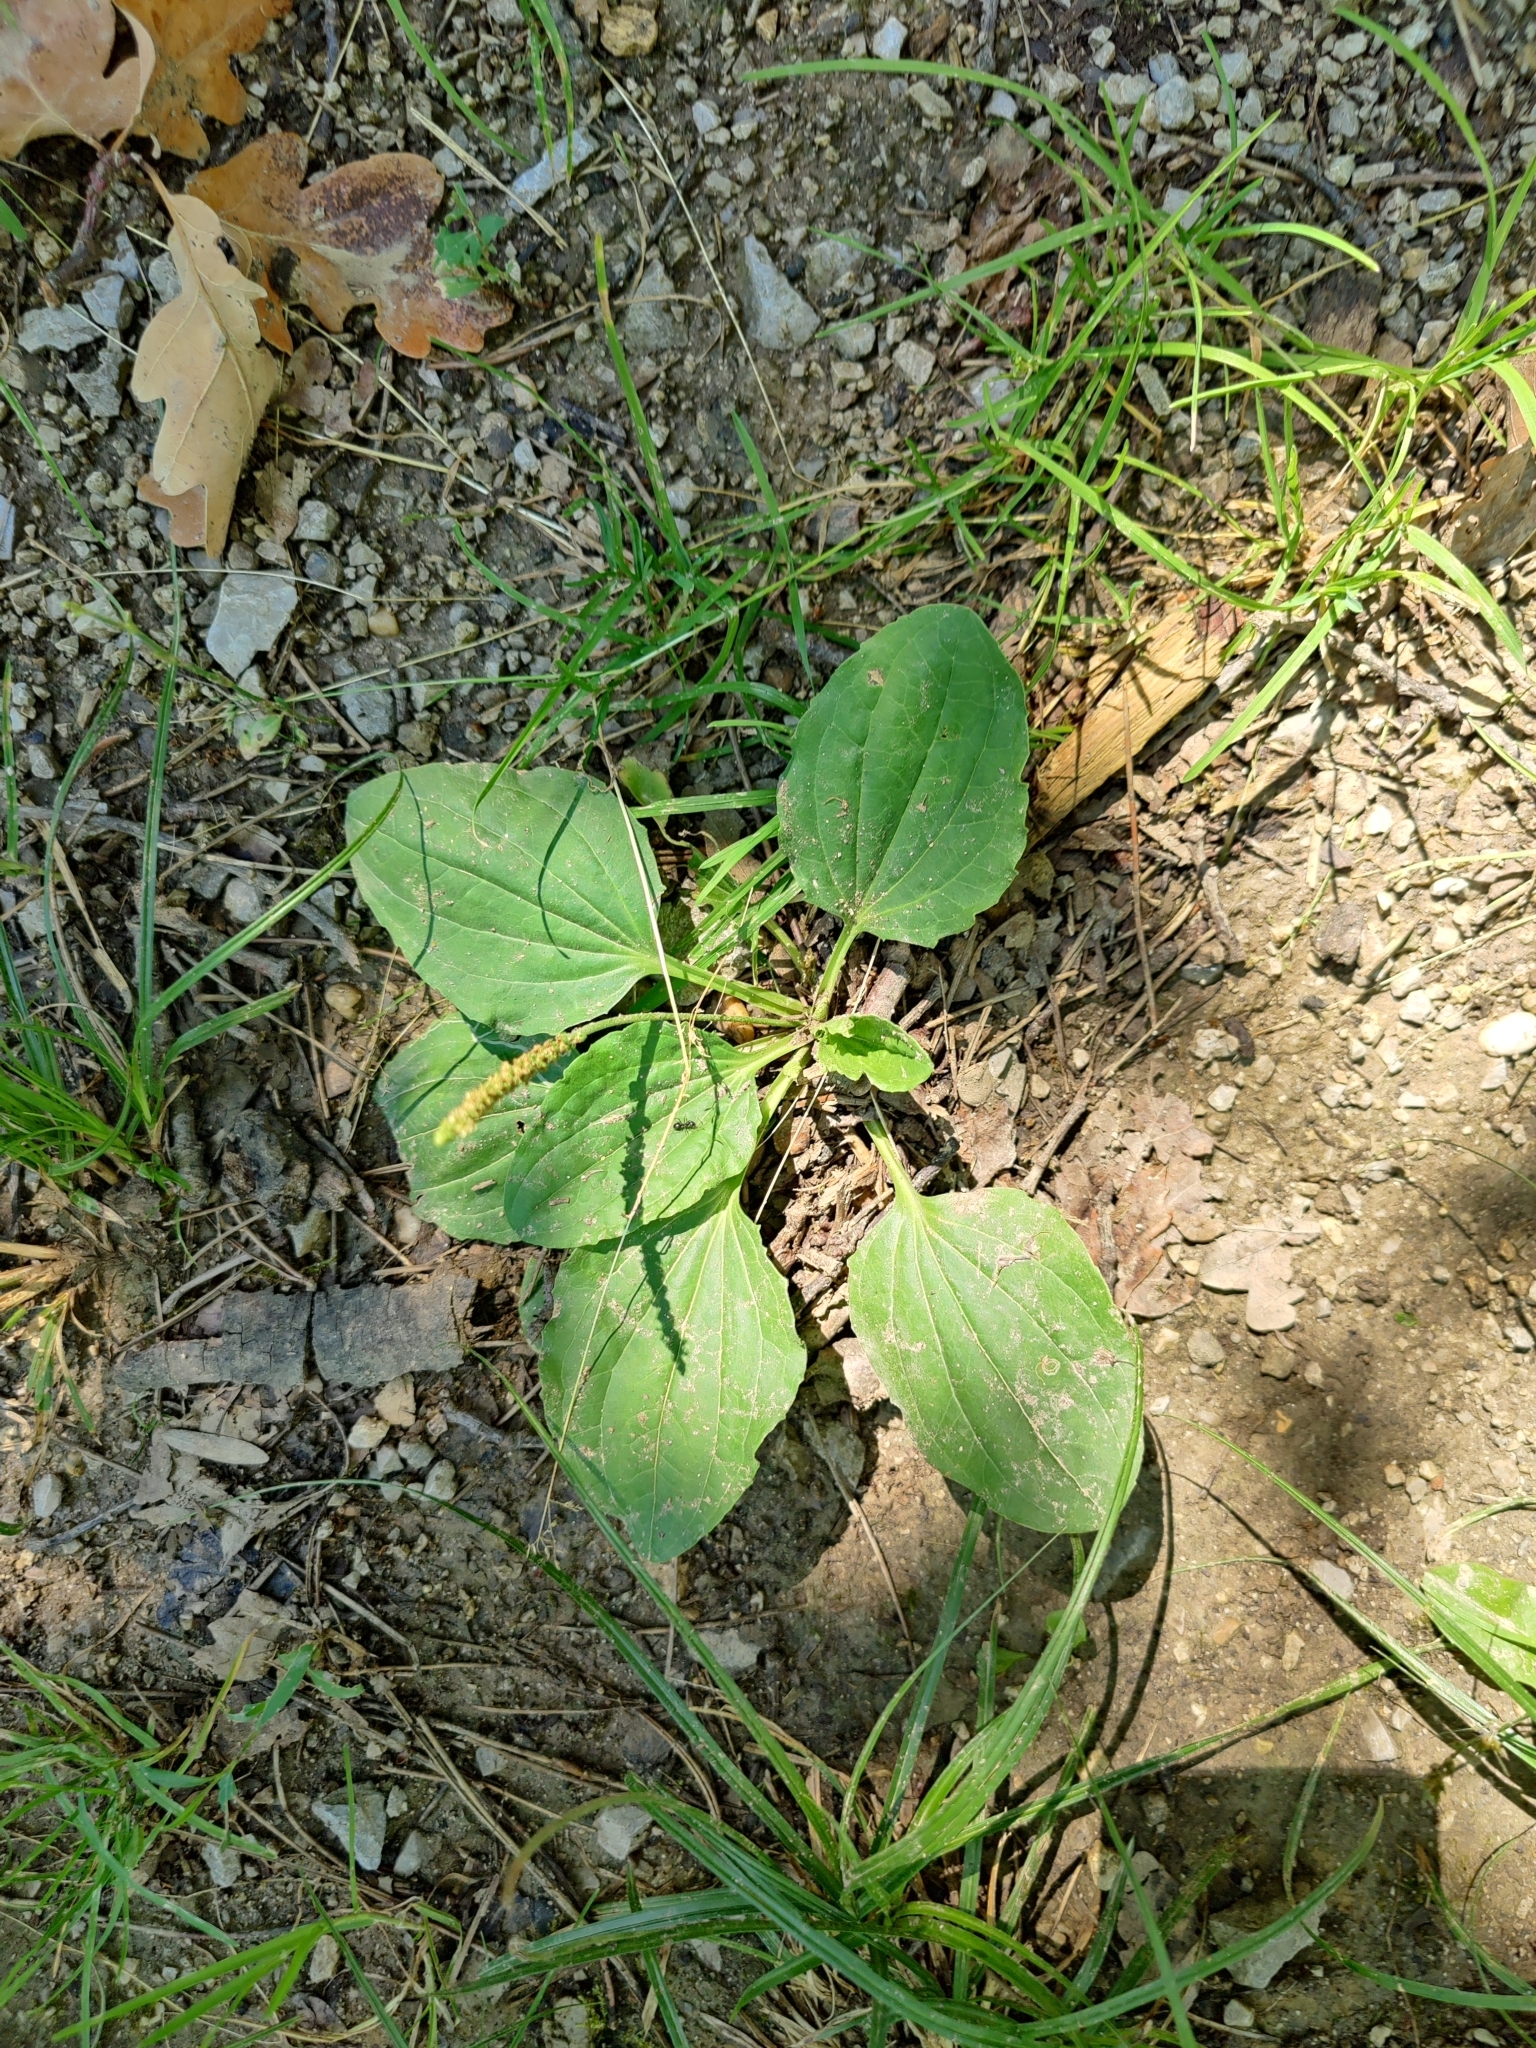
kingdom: Plantae
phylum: Tracheophyta
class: Magnoliopsida
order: Lamiales
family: Plantaginaceae
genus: Plantago
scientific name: Plantago major
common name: Common plantain
